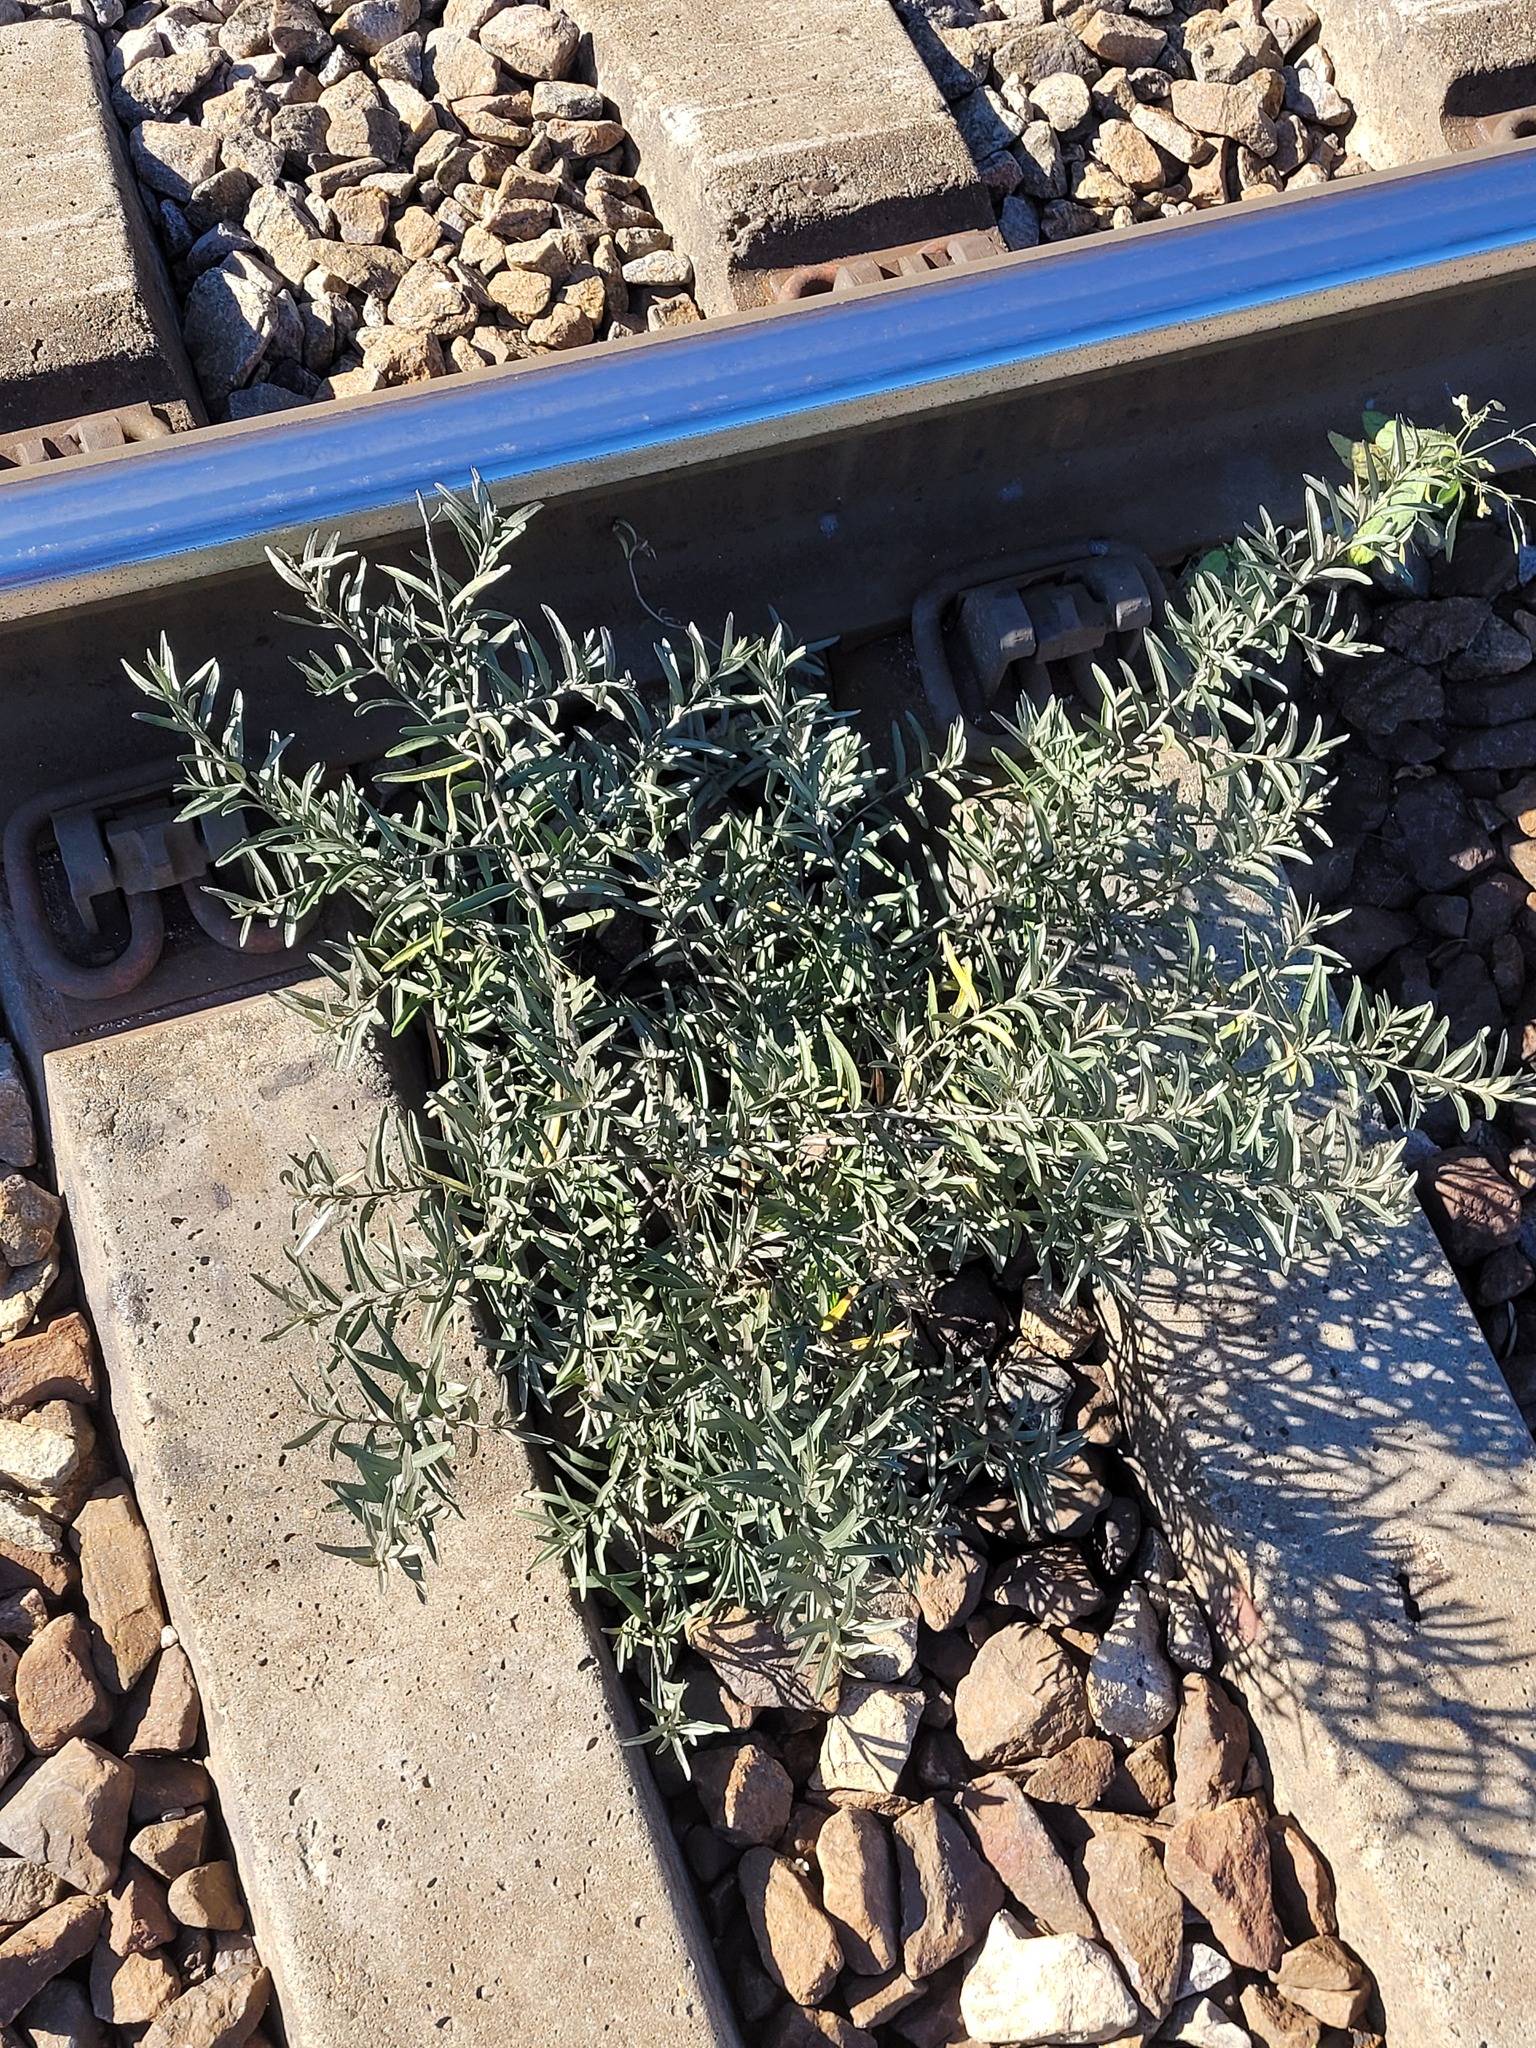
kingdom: Plantae
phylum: Tracheophyta
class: Magnoliopsida
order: Rosales
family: Elaeagnaceae
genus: Hippophae
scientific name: Hippophae rhamnoides
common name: Sea-buckthorn
